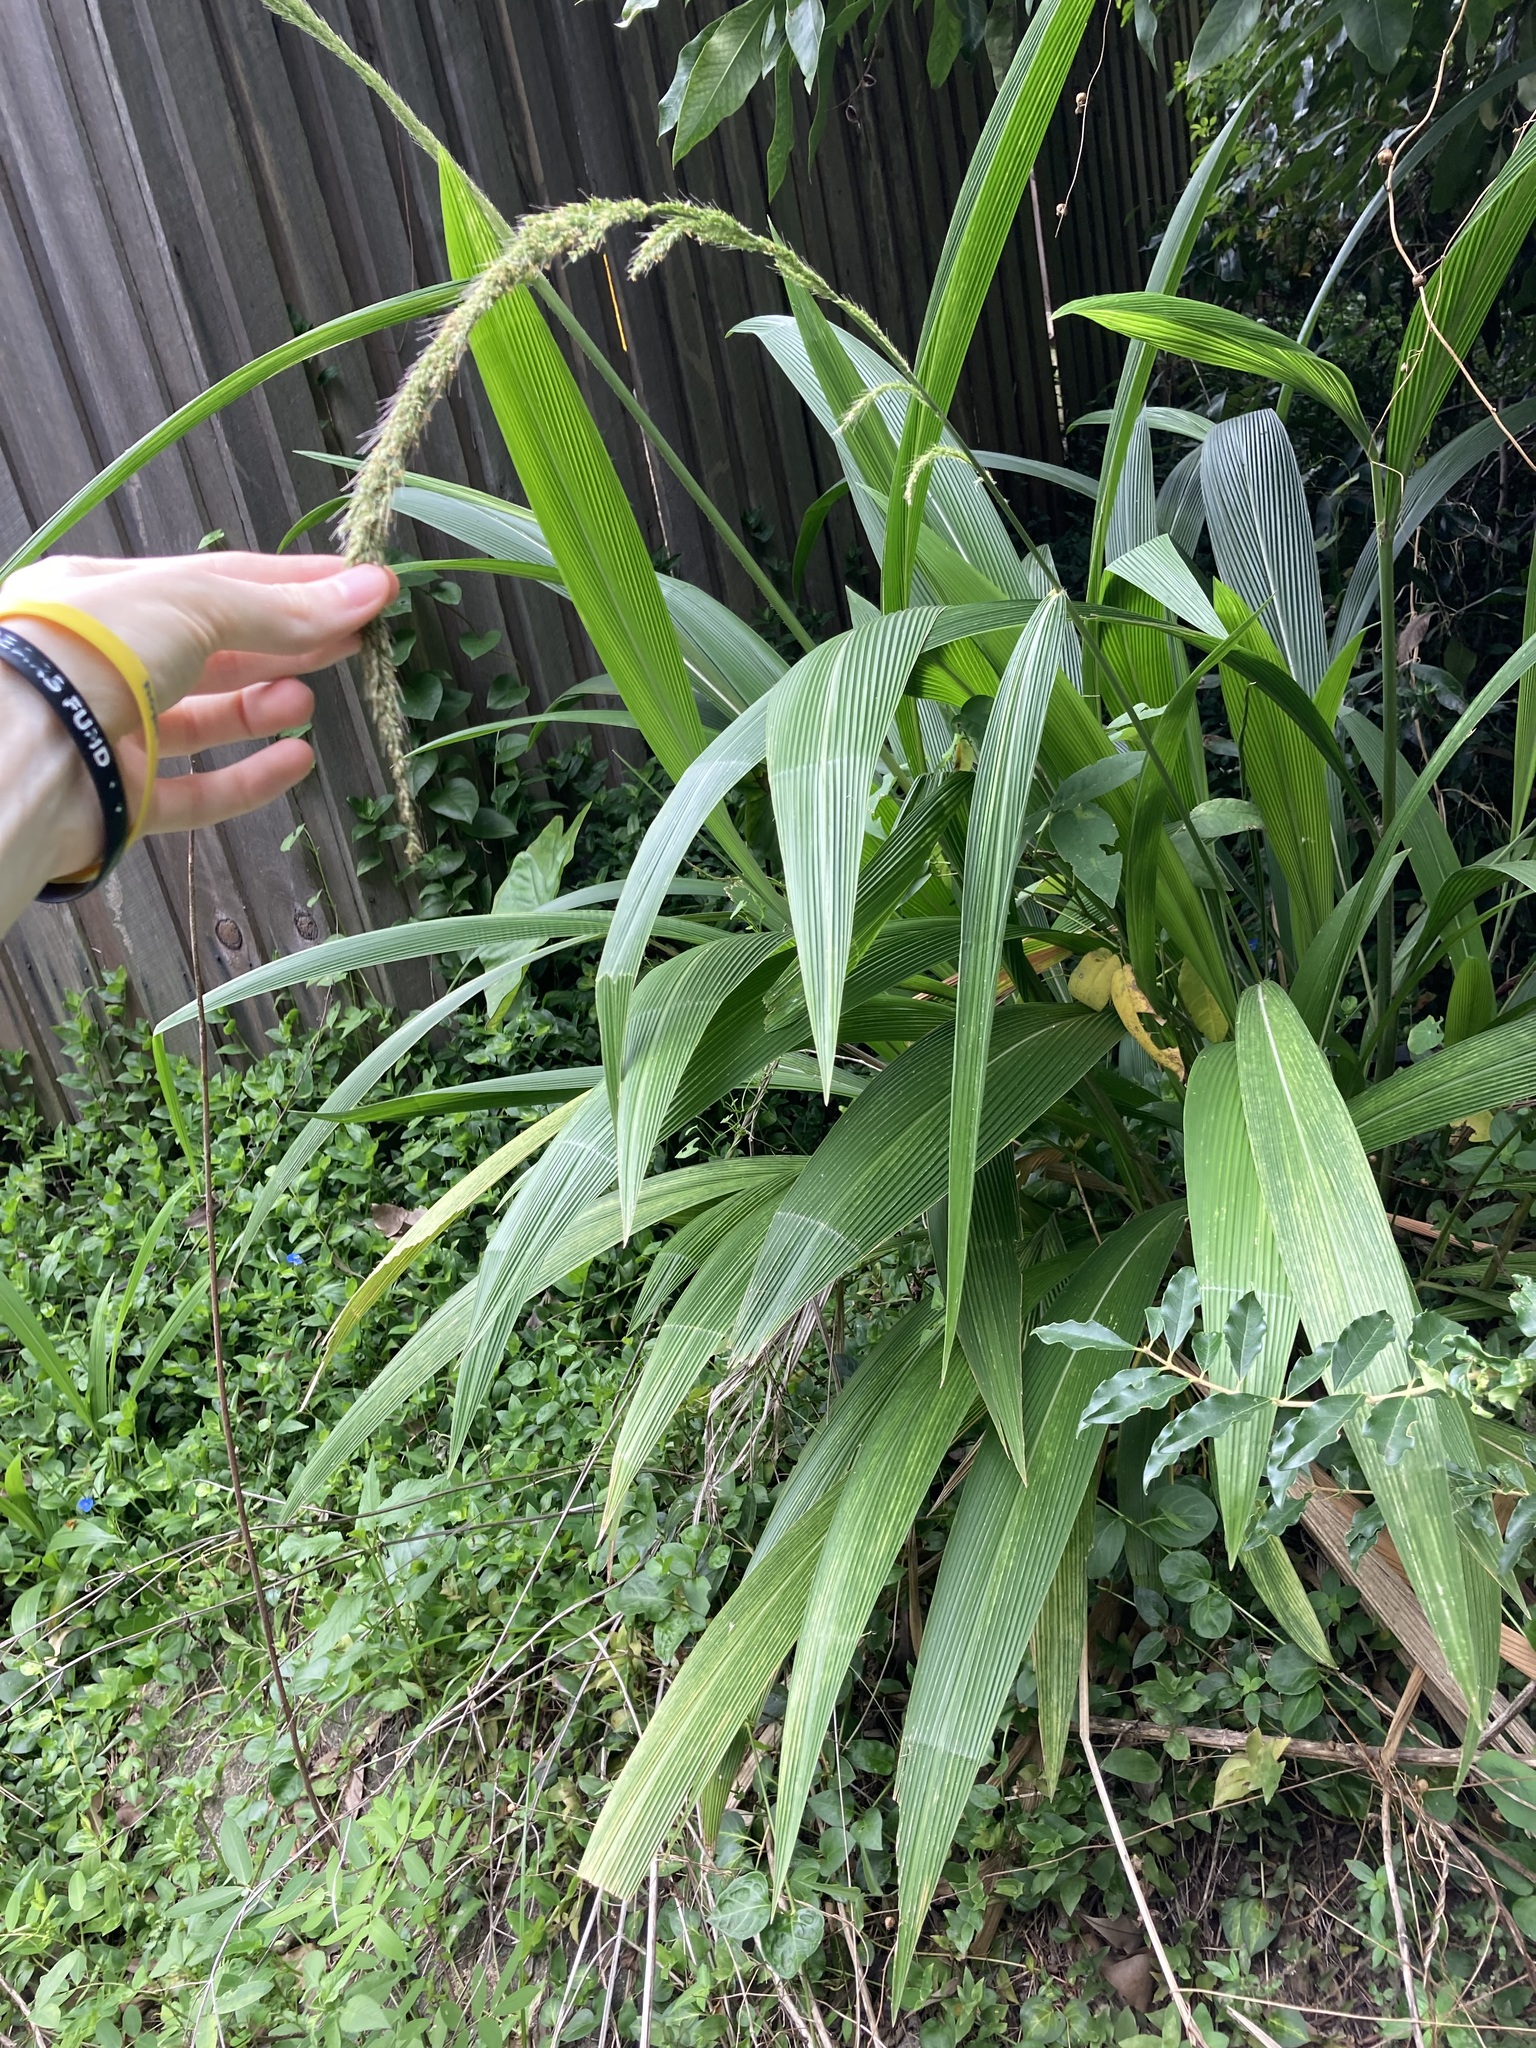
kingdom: Plantae
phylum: Tracheophyta
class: Liliopsida
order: Poales
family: Poaceae
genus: Setaria
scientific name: Setaria palmifolia
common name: Broadleaved bristlegrass
